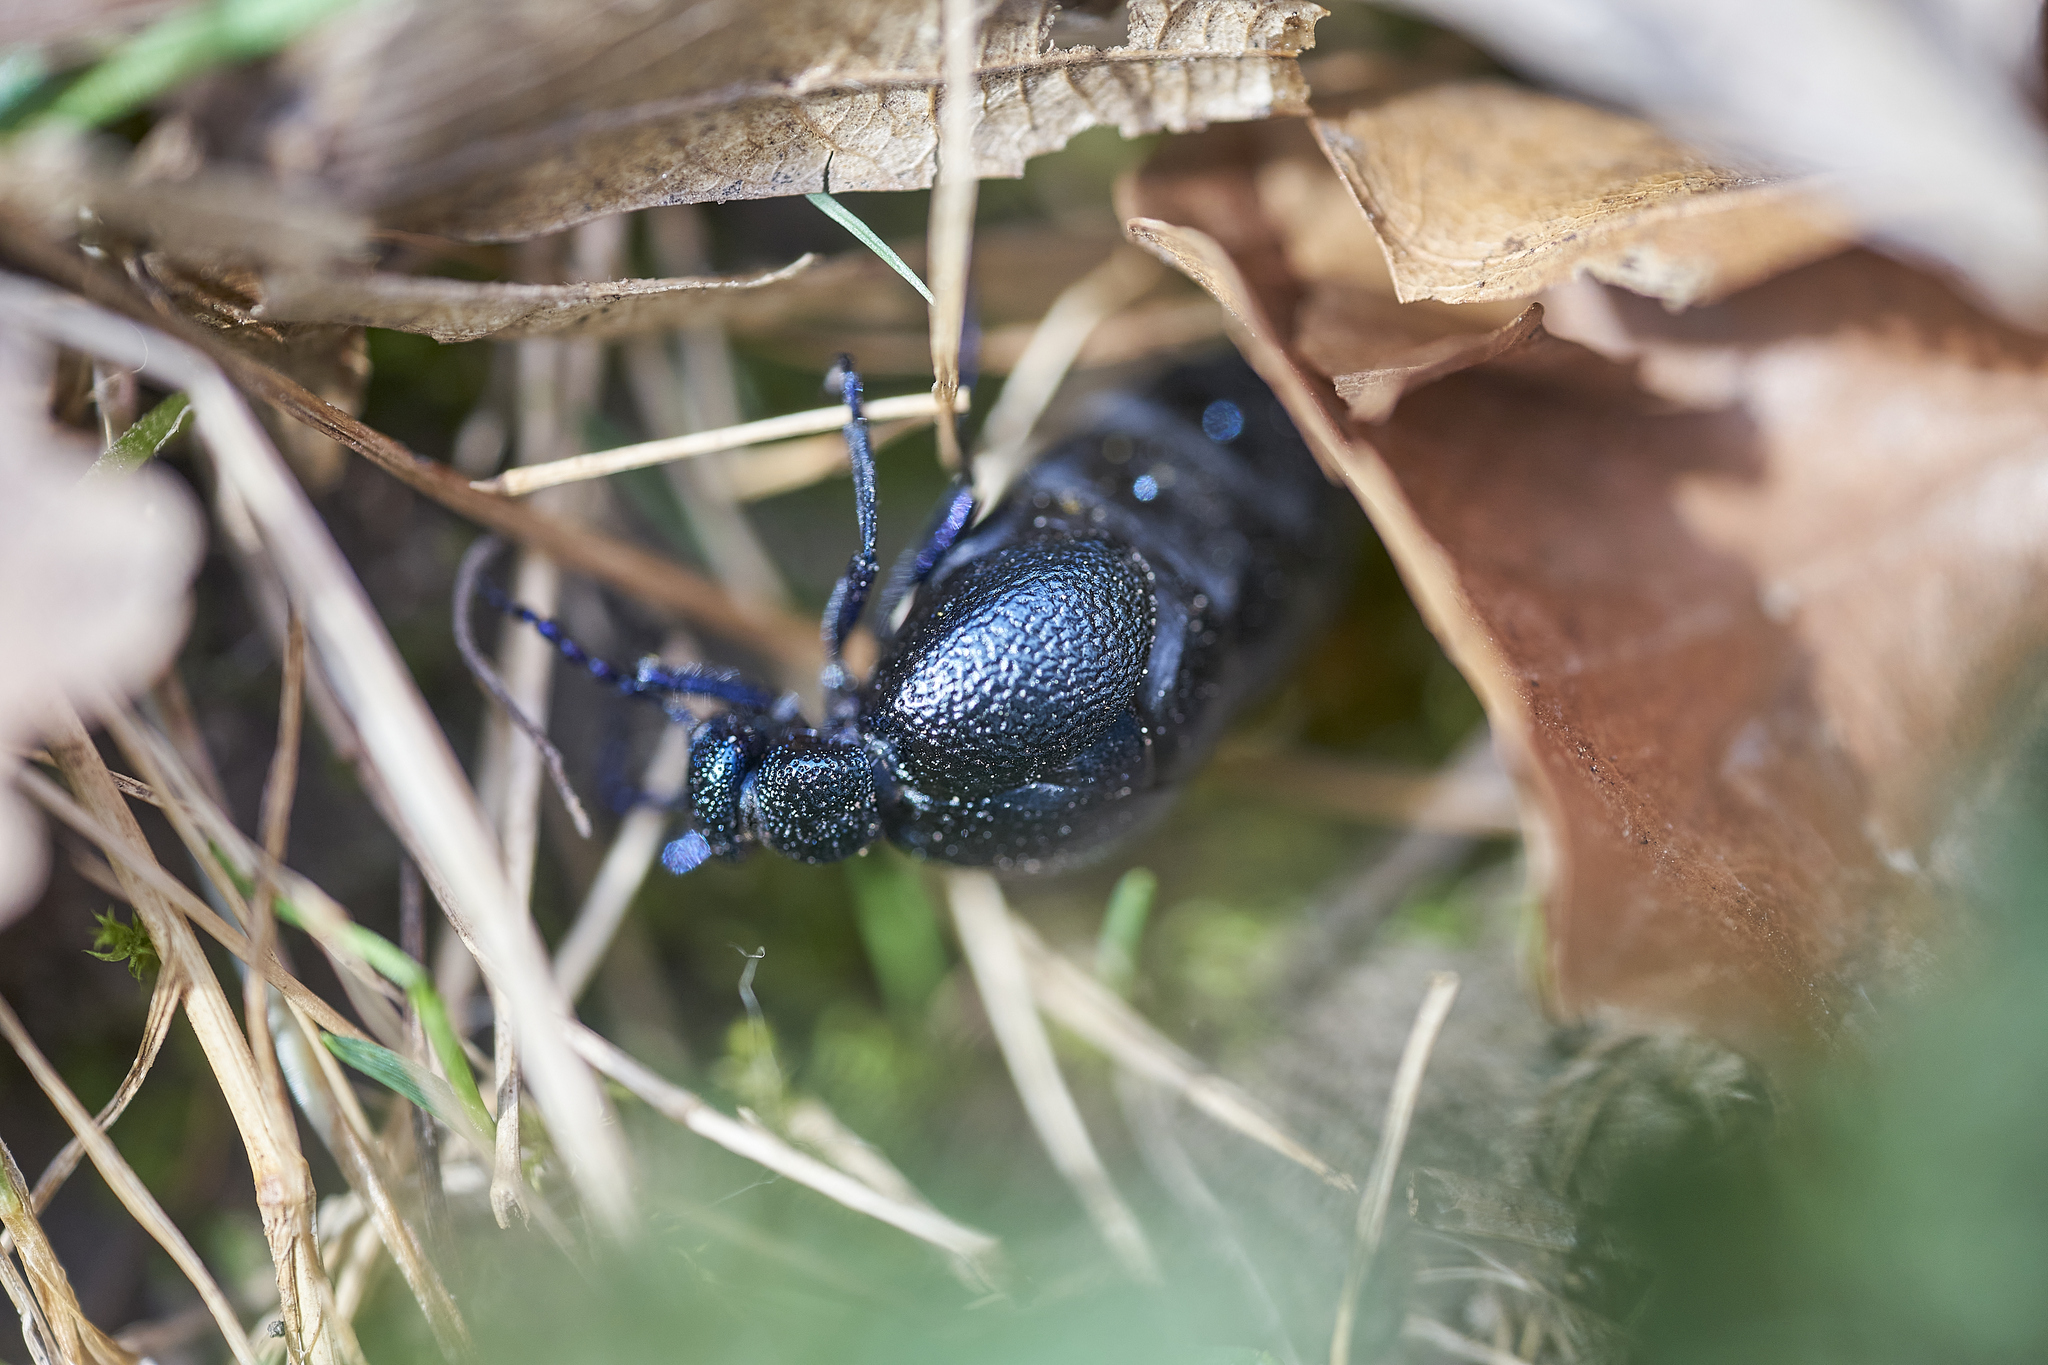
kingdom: Animalia
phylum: Arthropoda
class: Insecta
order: Coleoptera
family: Meloidae
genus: Meloe
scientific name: Meloe proscarabaeus
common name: Black oil-beetle
